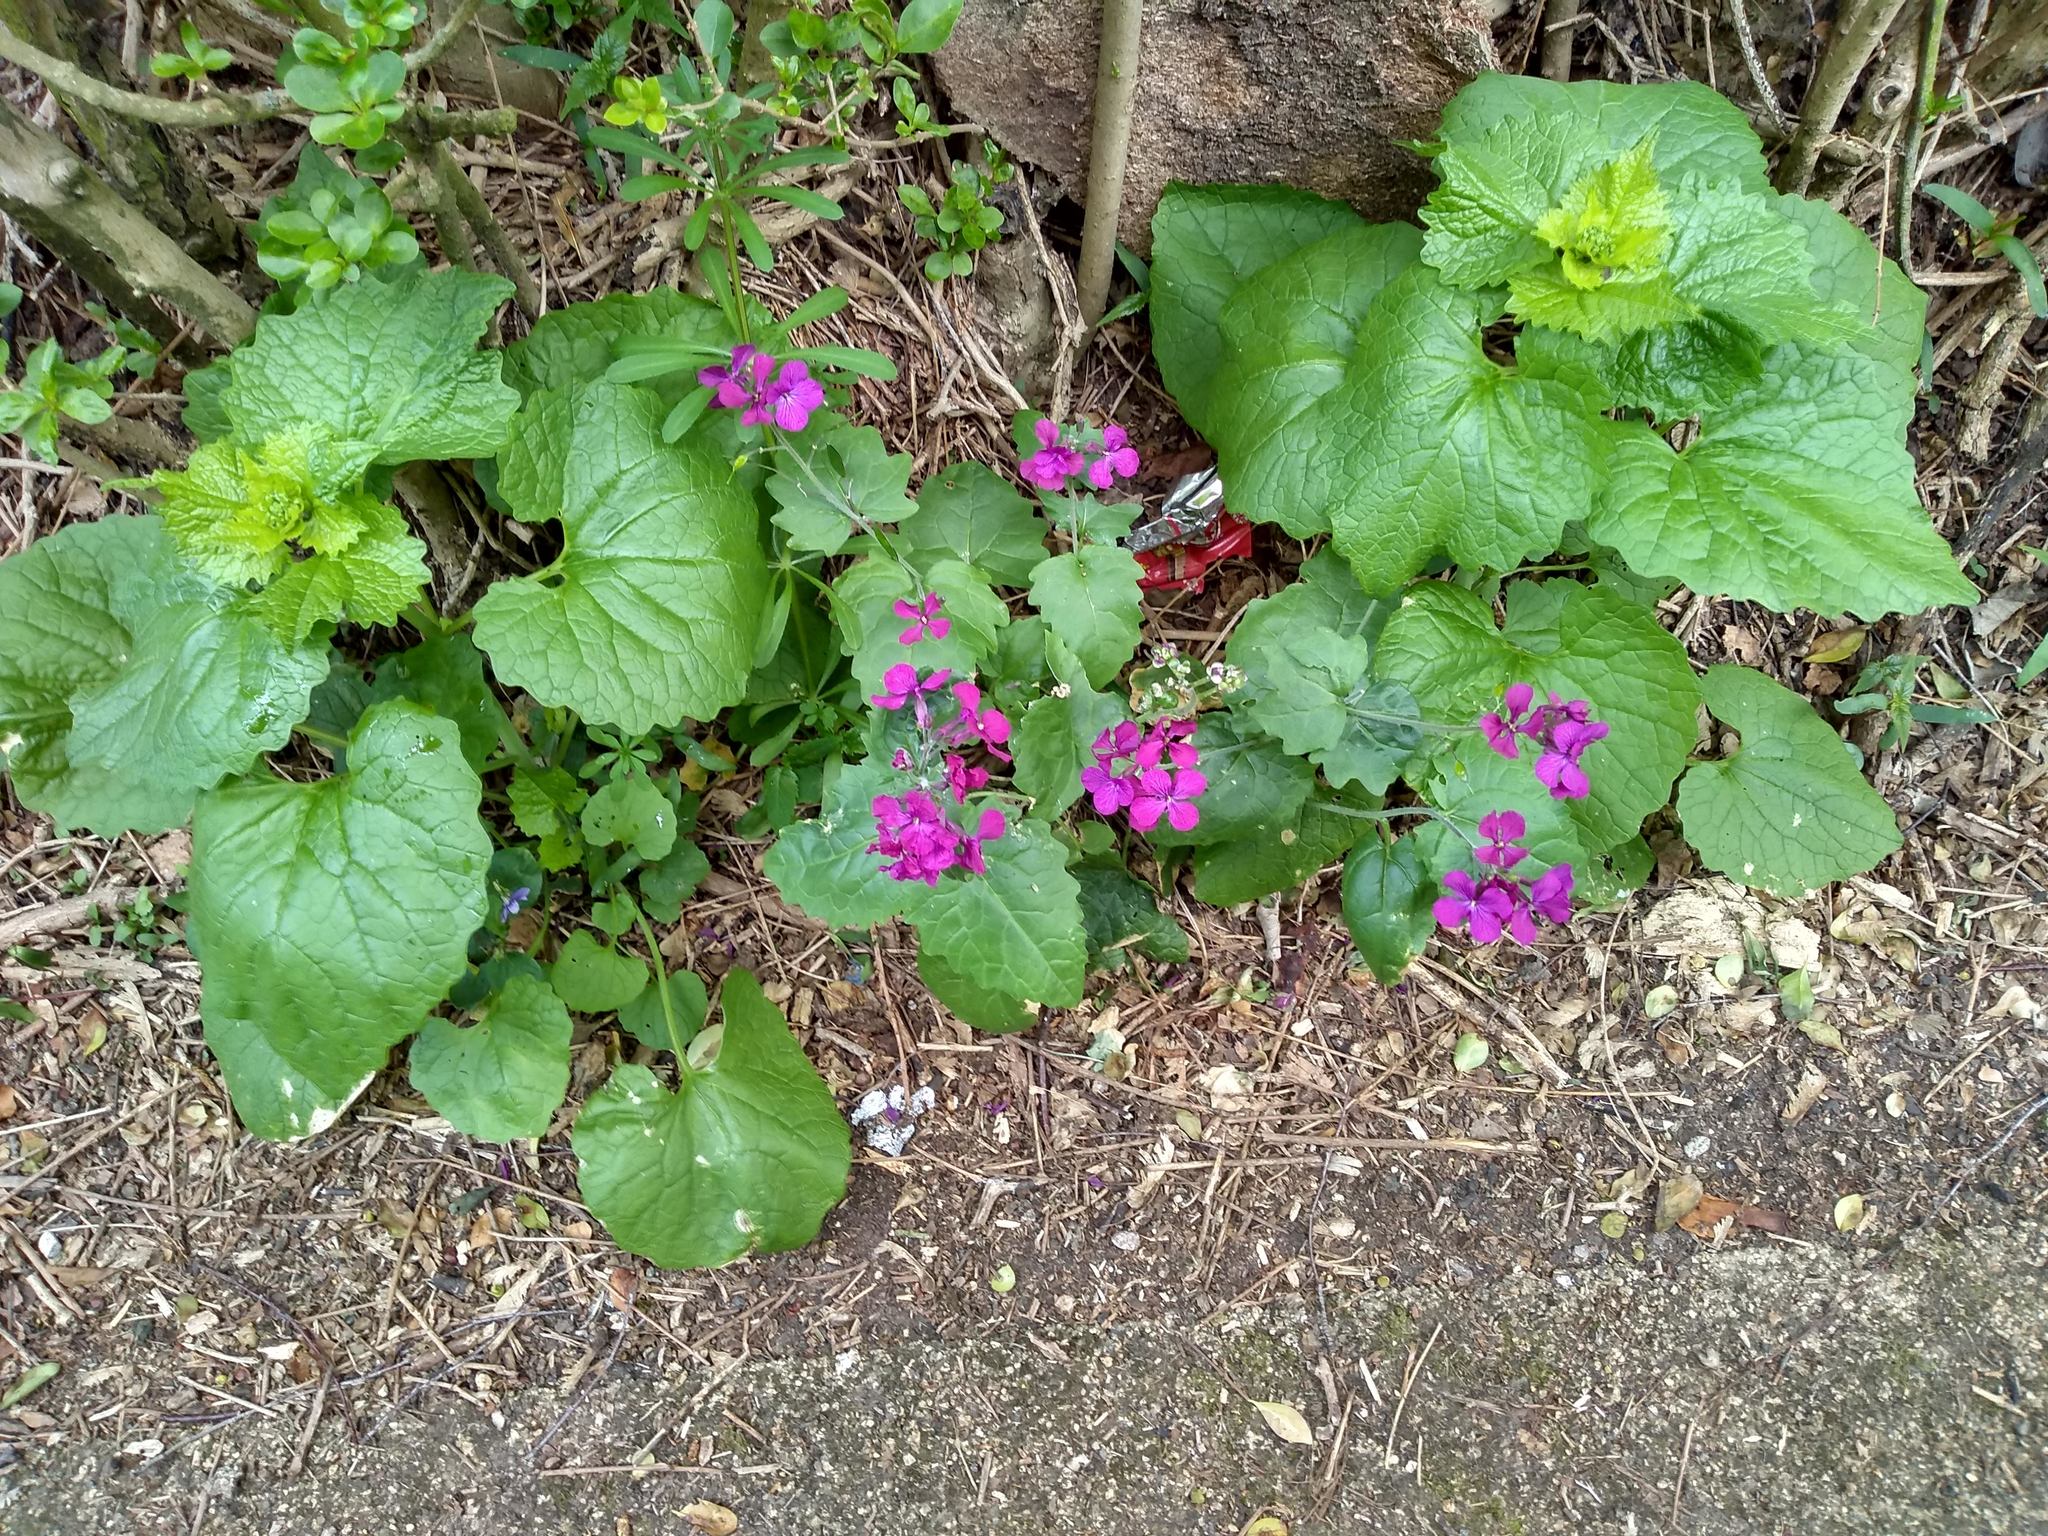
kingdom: Plantae
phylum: Tracheophyta
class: Magnoliopsida
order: Brassicales
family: Brassicaceae
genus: Lunaria
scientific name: Lunaria annua
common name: Honesty
